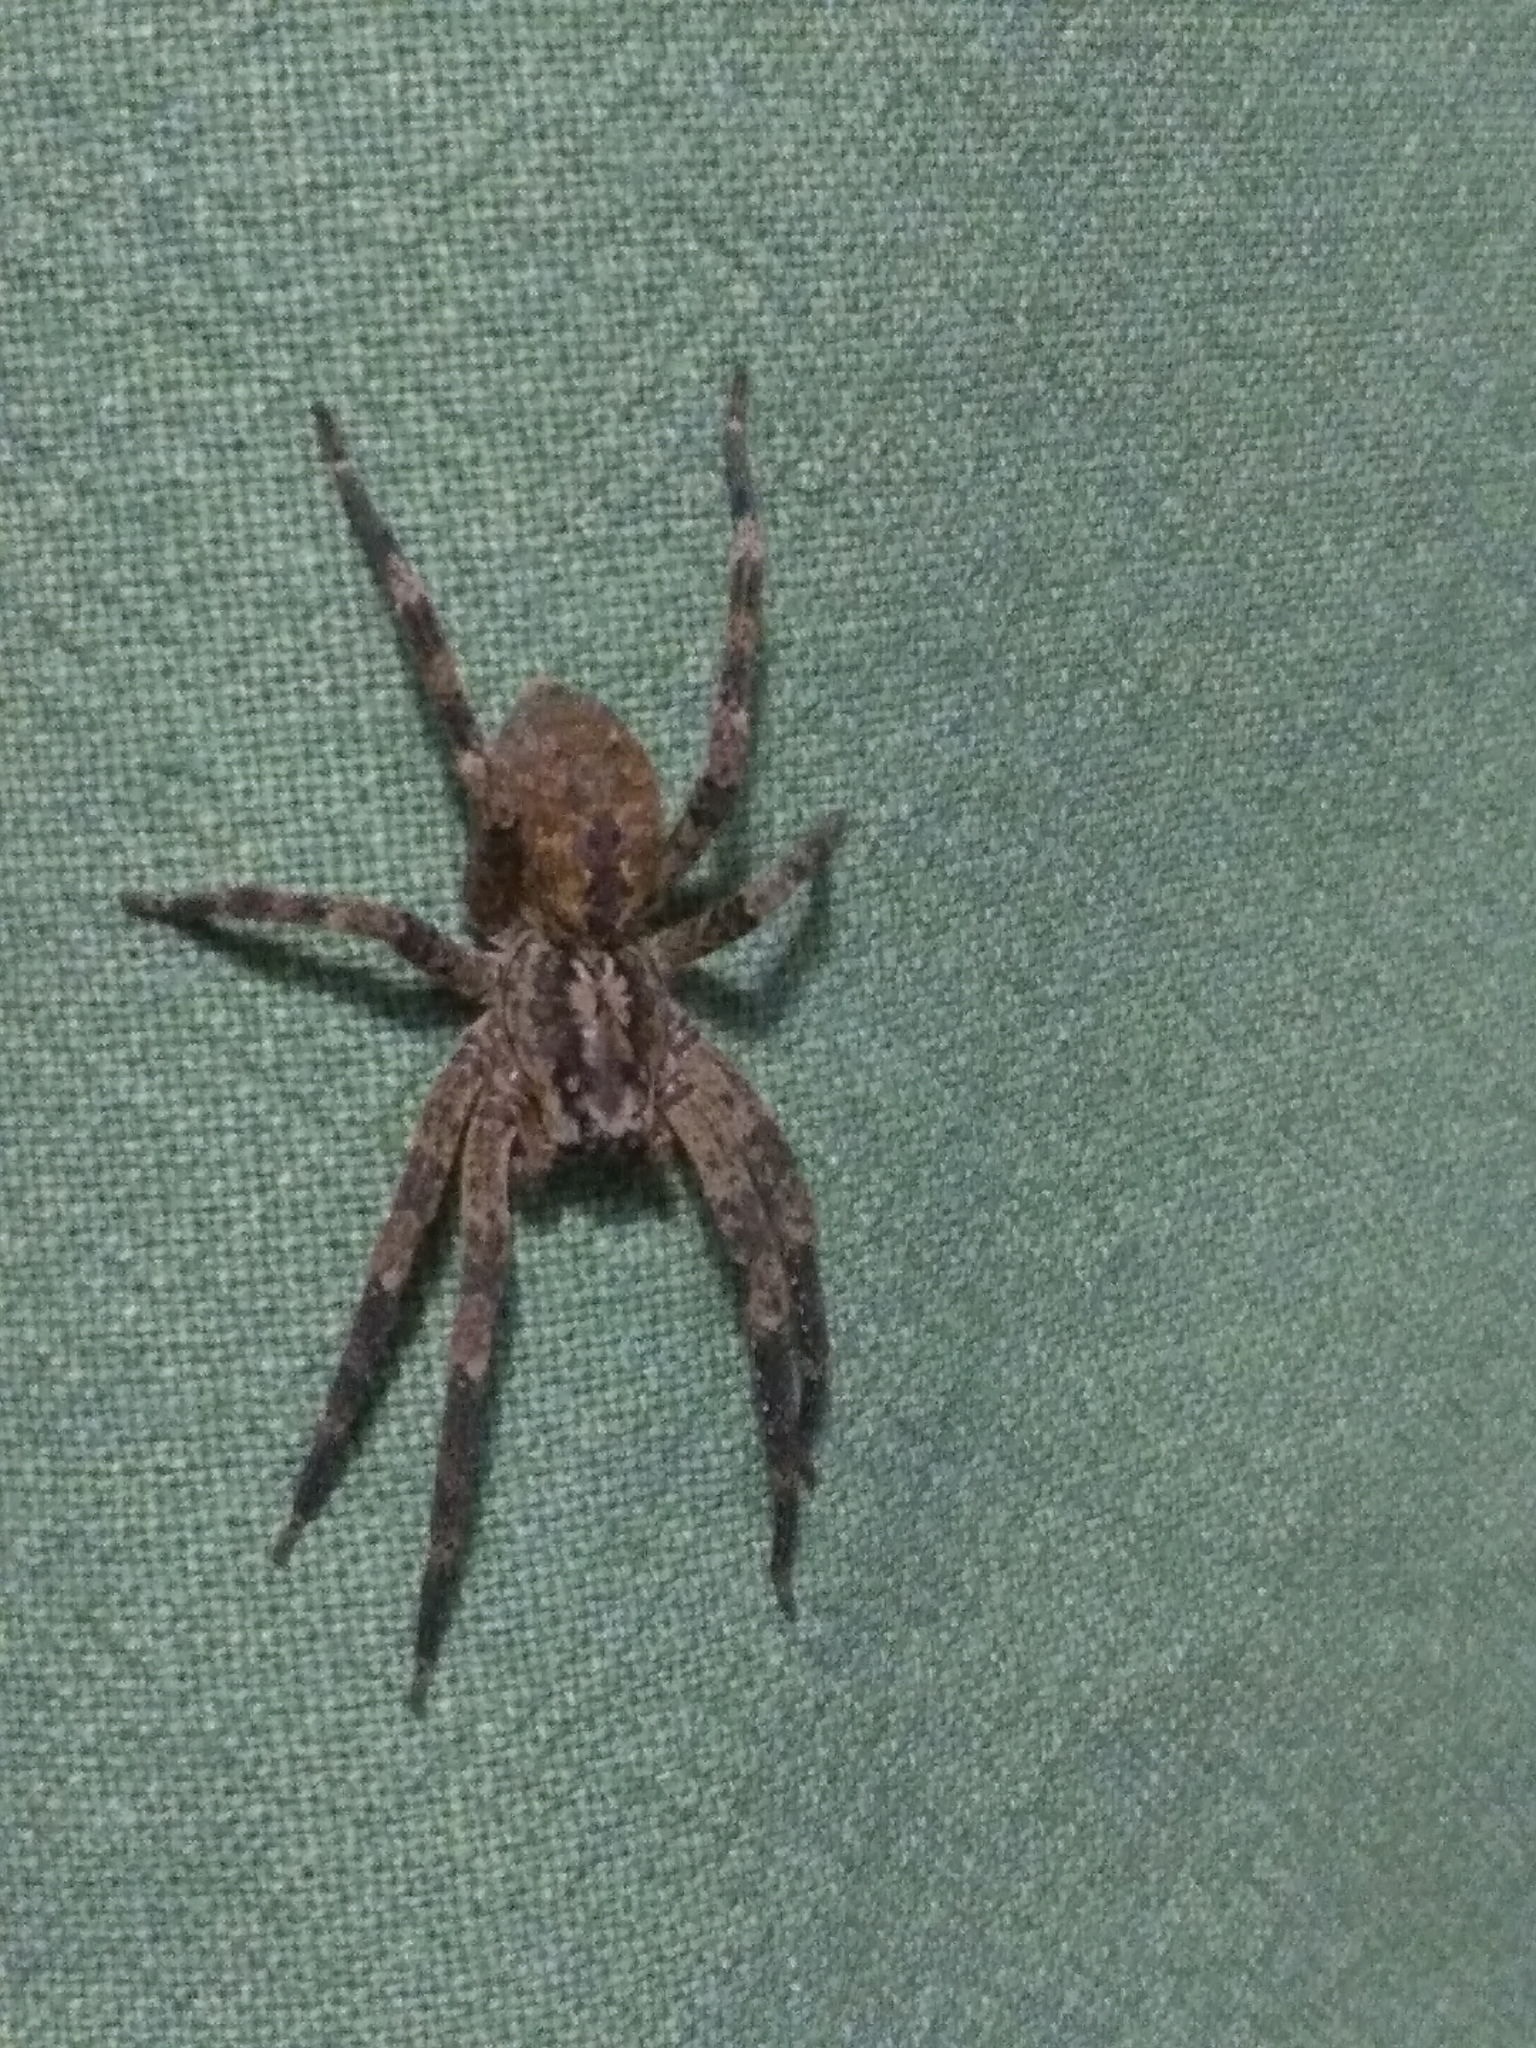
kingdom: Animalia
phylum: Arthropoda
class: Arachnida
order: Araneae
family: Zoropsidae
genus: Zoropsis
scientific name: Zoropsis spinimana
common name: Zoropsid spider
